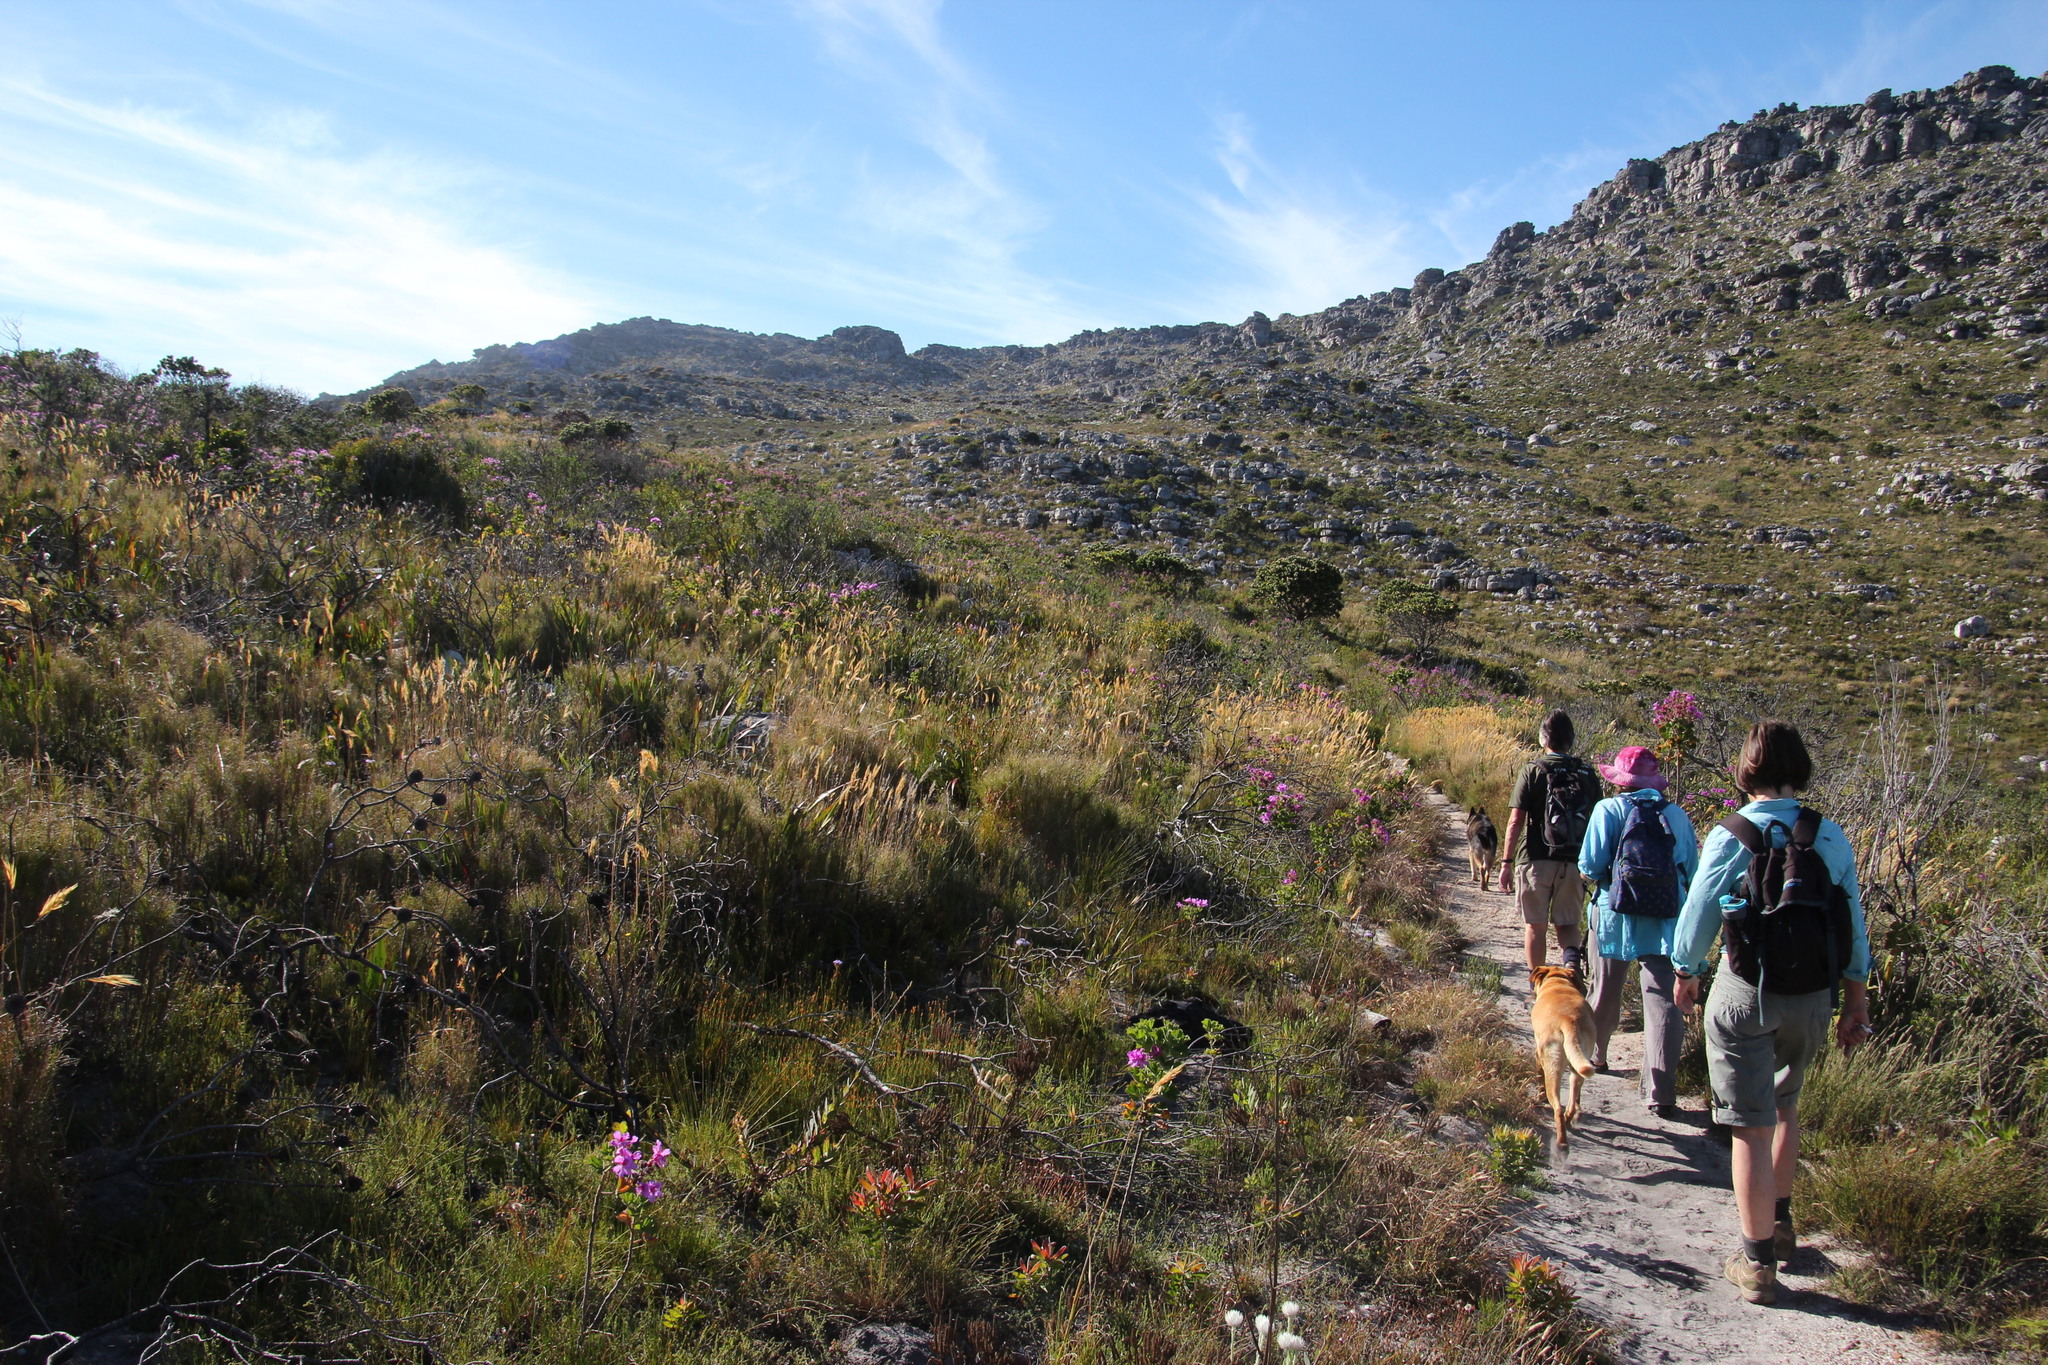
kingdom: Plantae
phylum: Tracheophyta
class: Liliopsida
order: Poales
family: Poaceae
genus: Pseudopentameris
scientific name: Pseudopentameris macrantha
